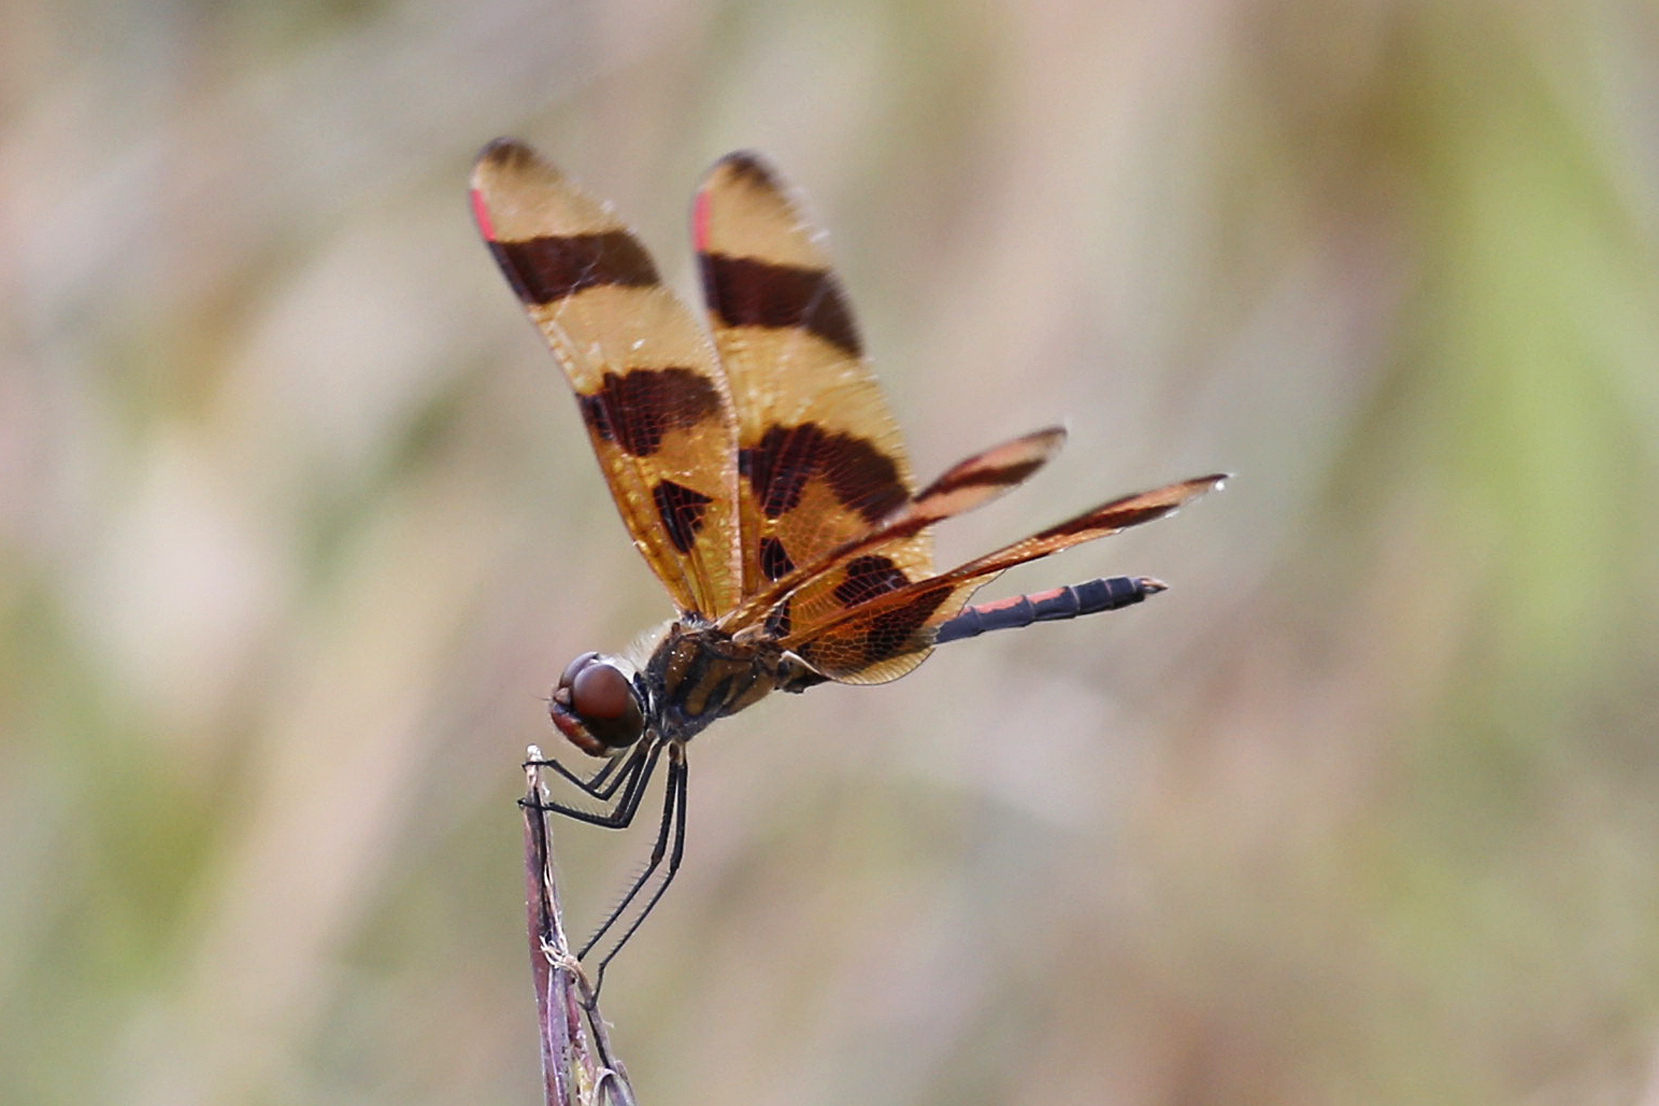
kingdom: Animalia
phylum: Arthropoda
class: Insecta
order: Odonata
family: Libellulidae
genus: Celithemis
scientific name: Celithemis eponina
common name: Halloween pennant
